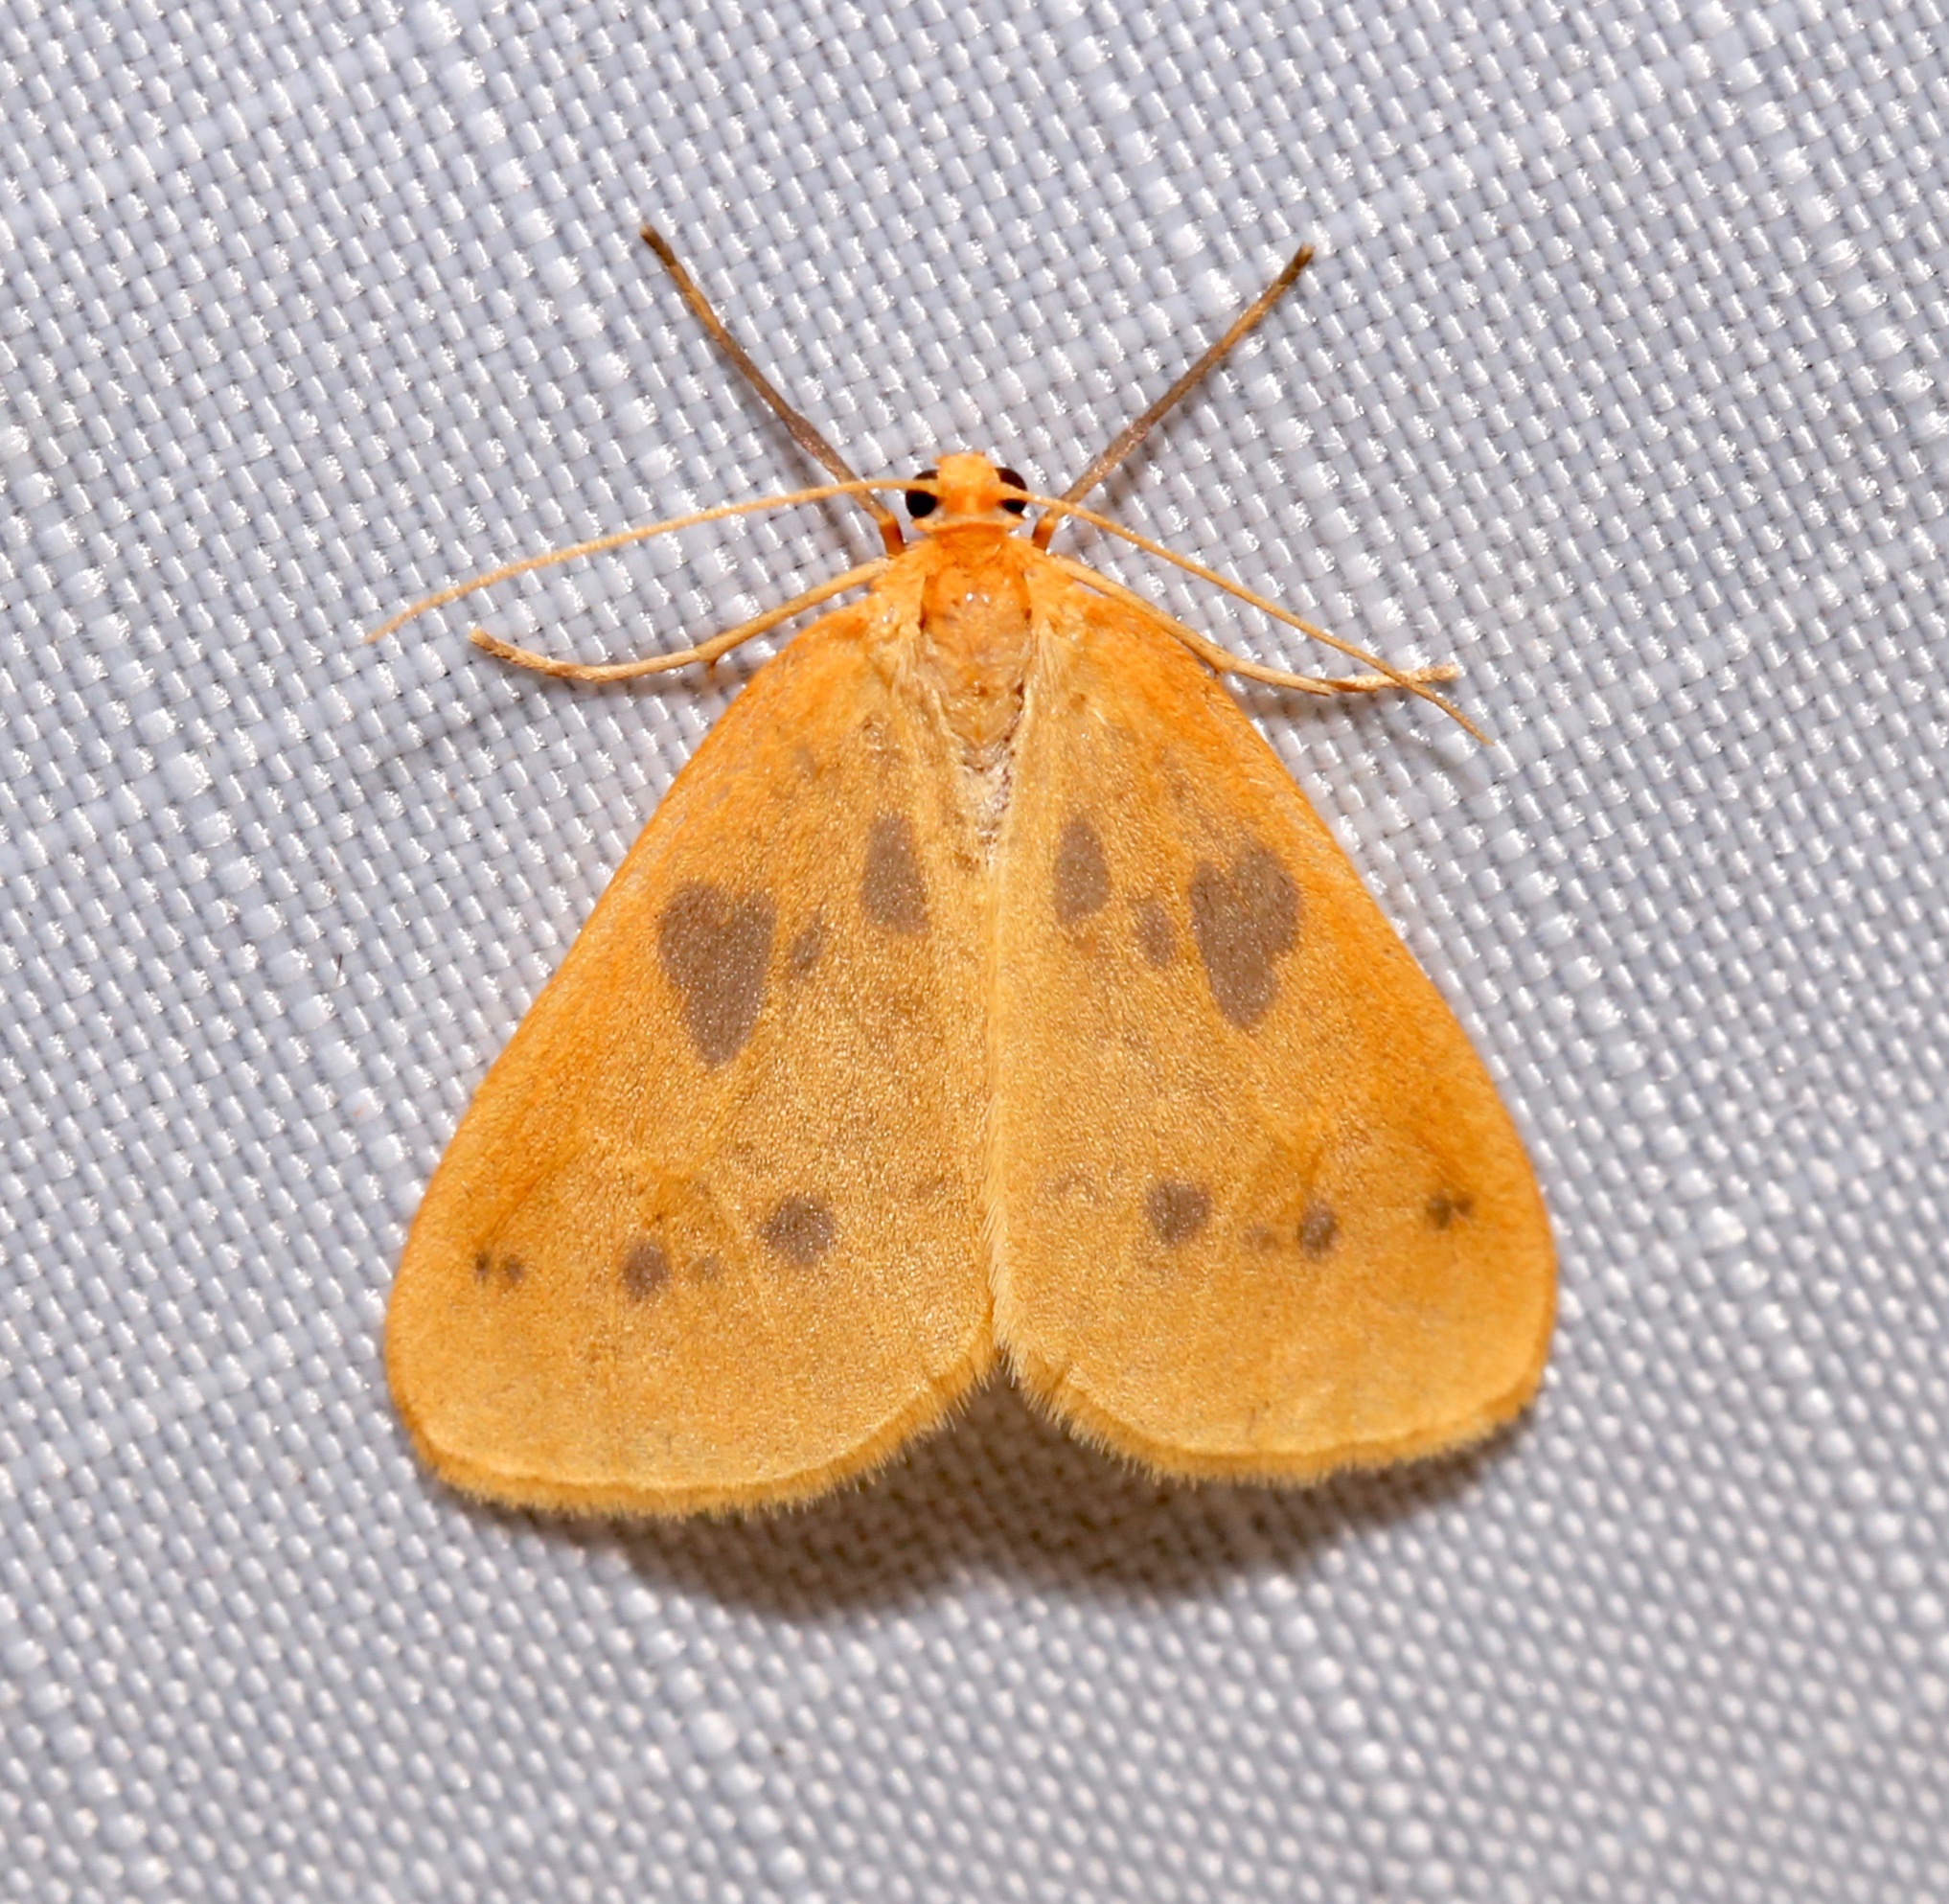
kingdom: Animalia
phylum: Arthropoda
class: Insecta
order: Lepidoptera
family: Geometridae
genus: Eubaphe
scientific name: Eubaphe meridiana
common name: Little beggar
